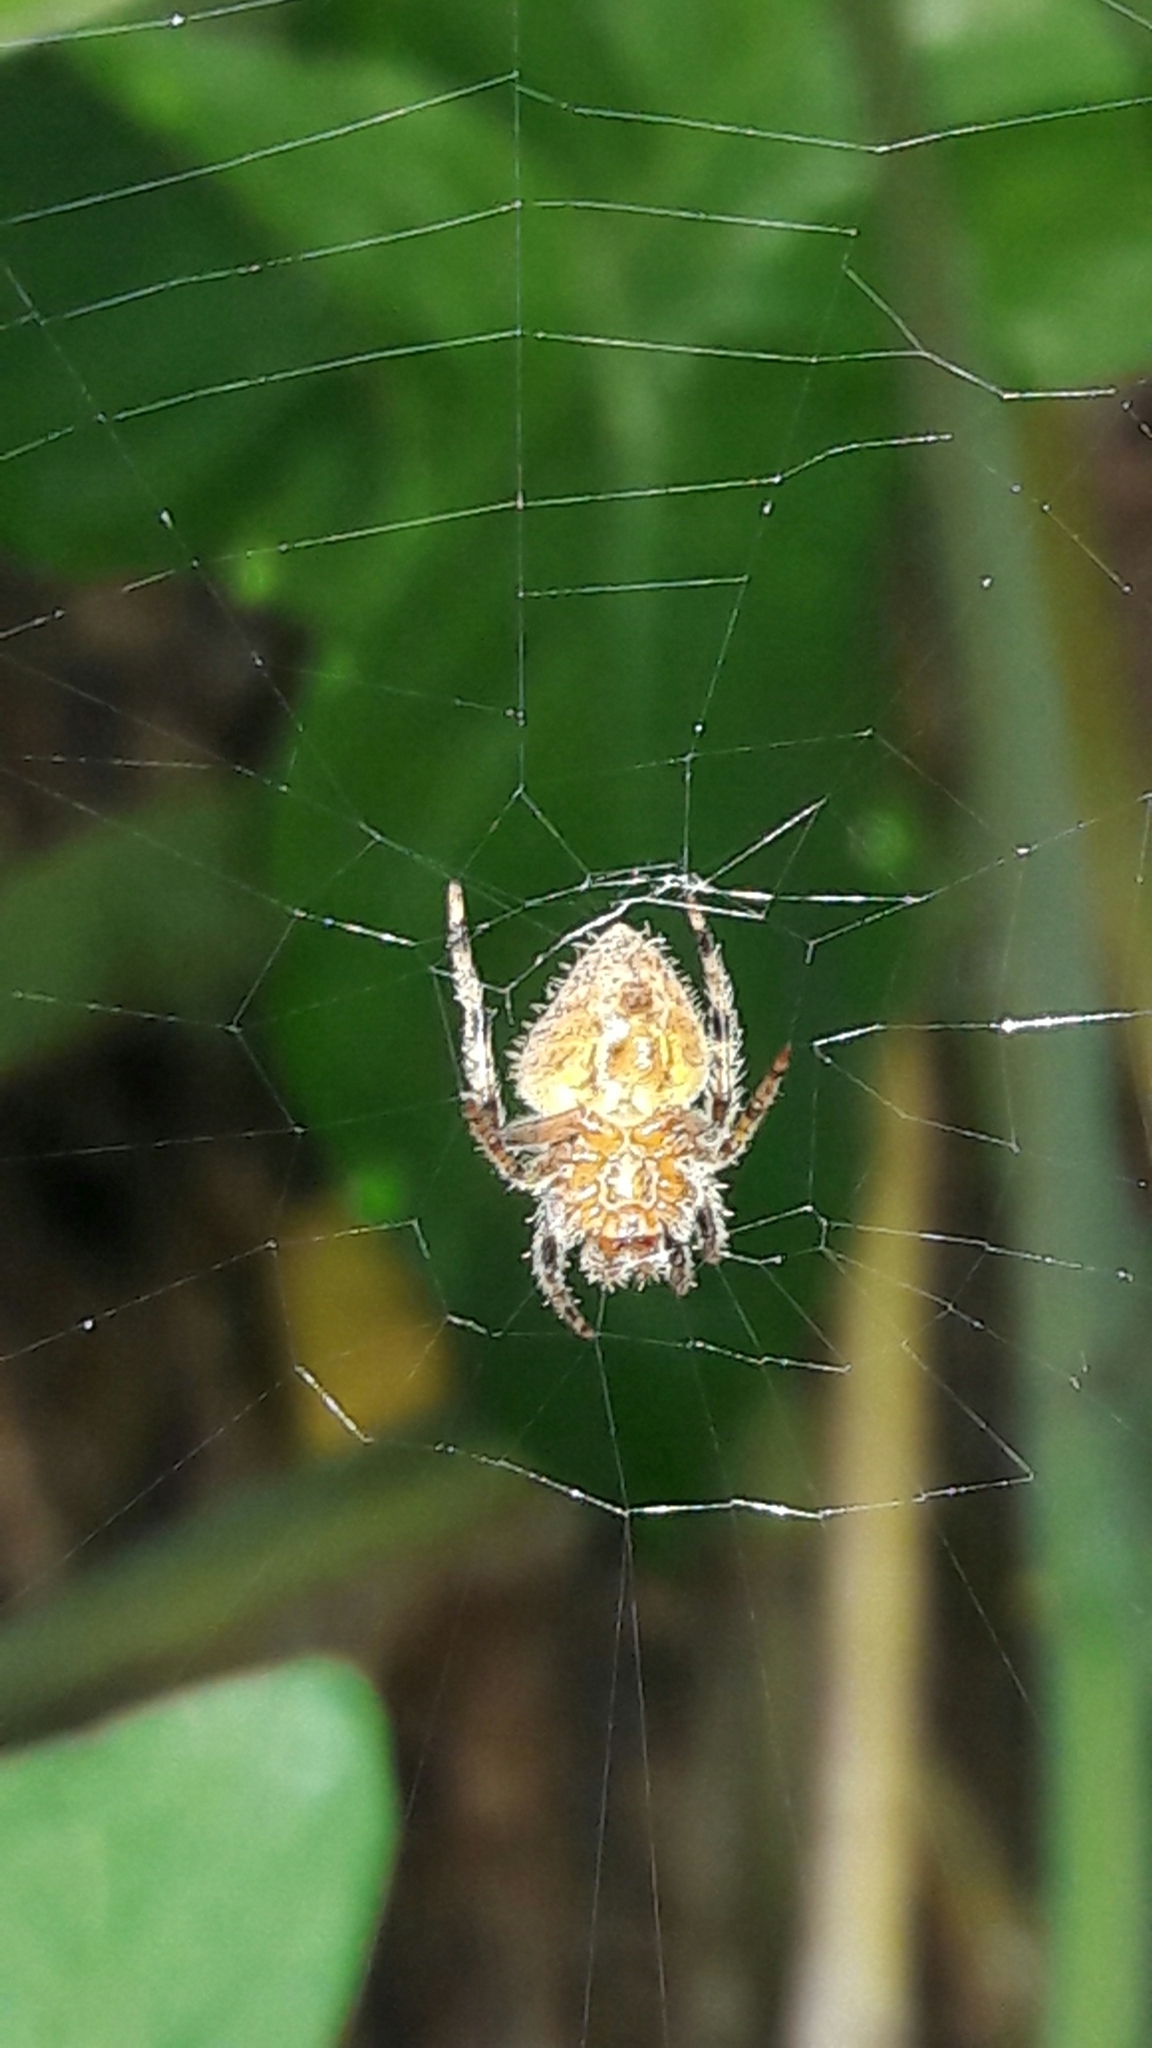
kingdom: Animalia
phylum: Arthropoda
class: Arachnida
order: Araneae
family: Araneidae
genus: Eriophora
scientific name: Eriophora edax
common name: Orb weavers
